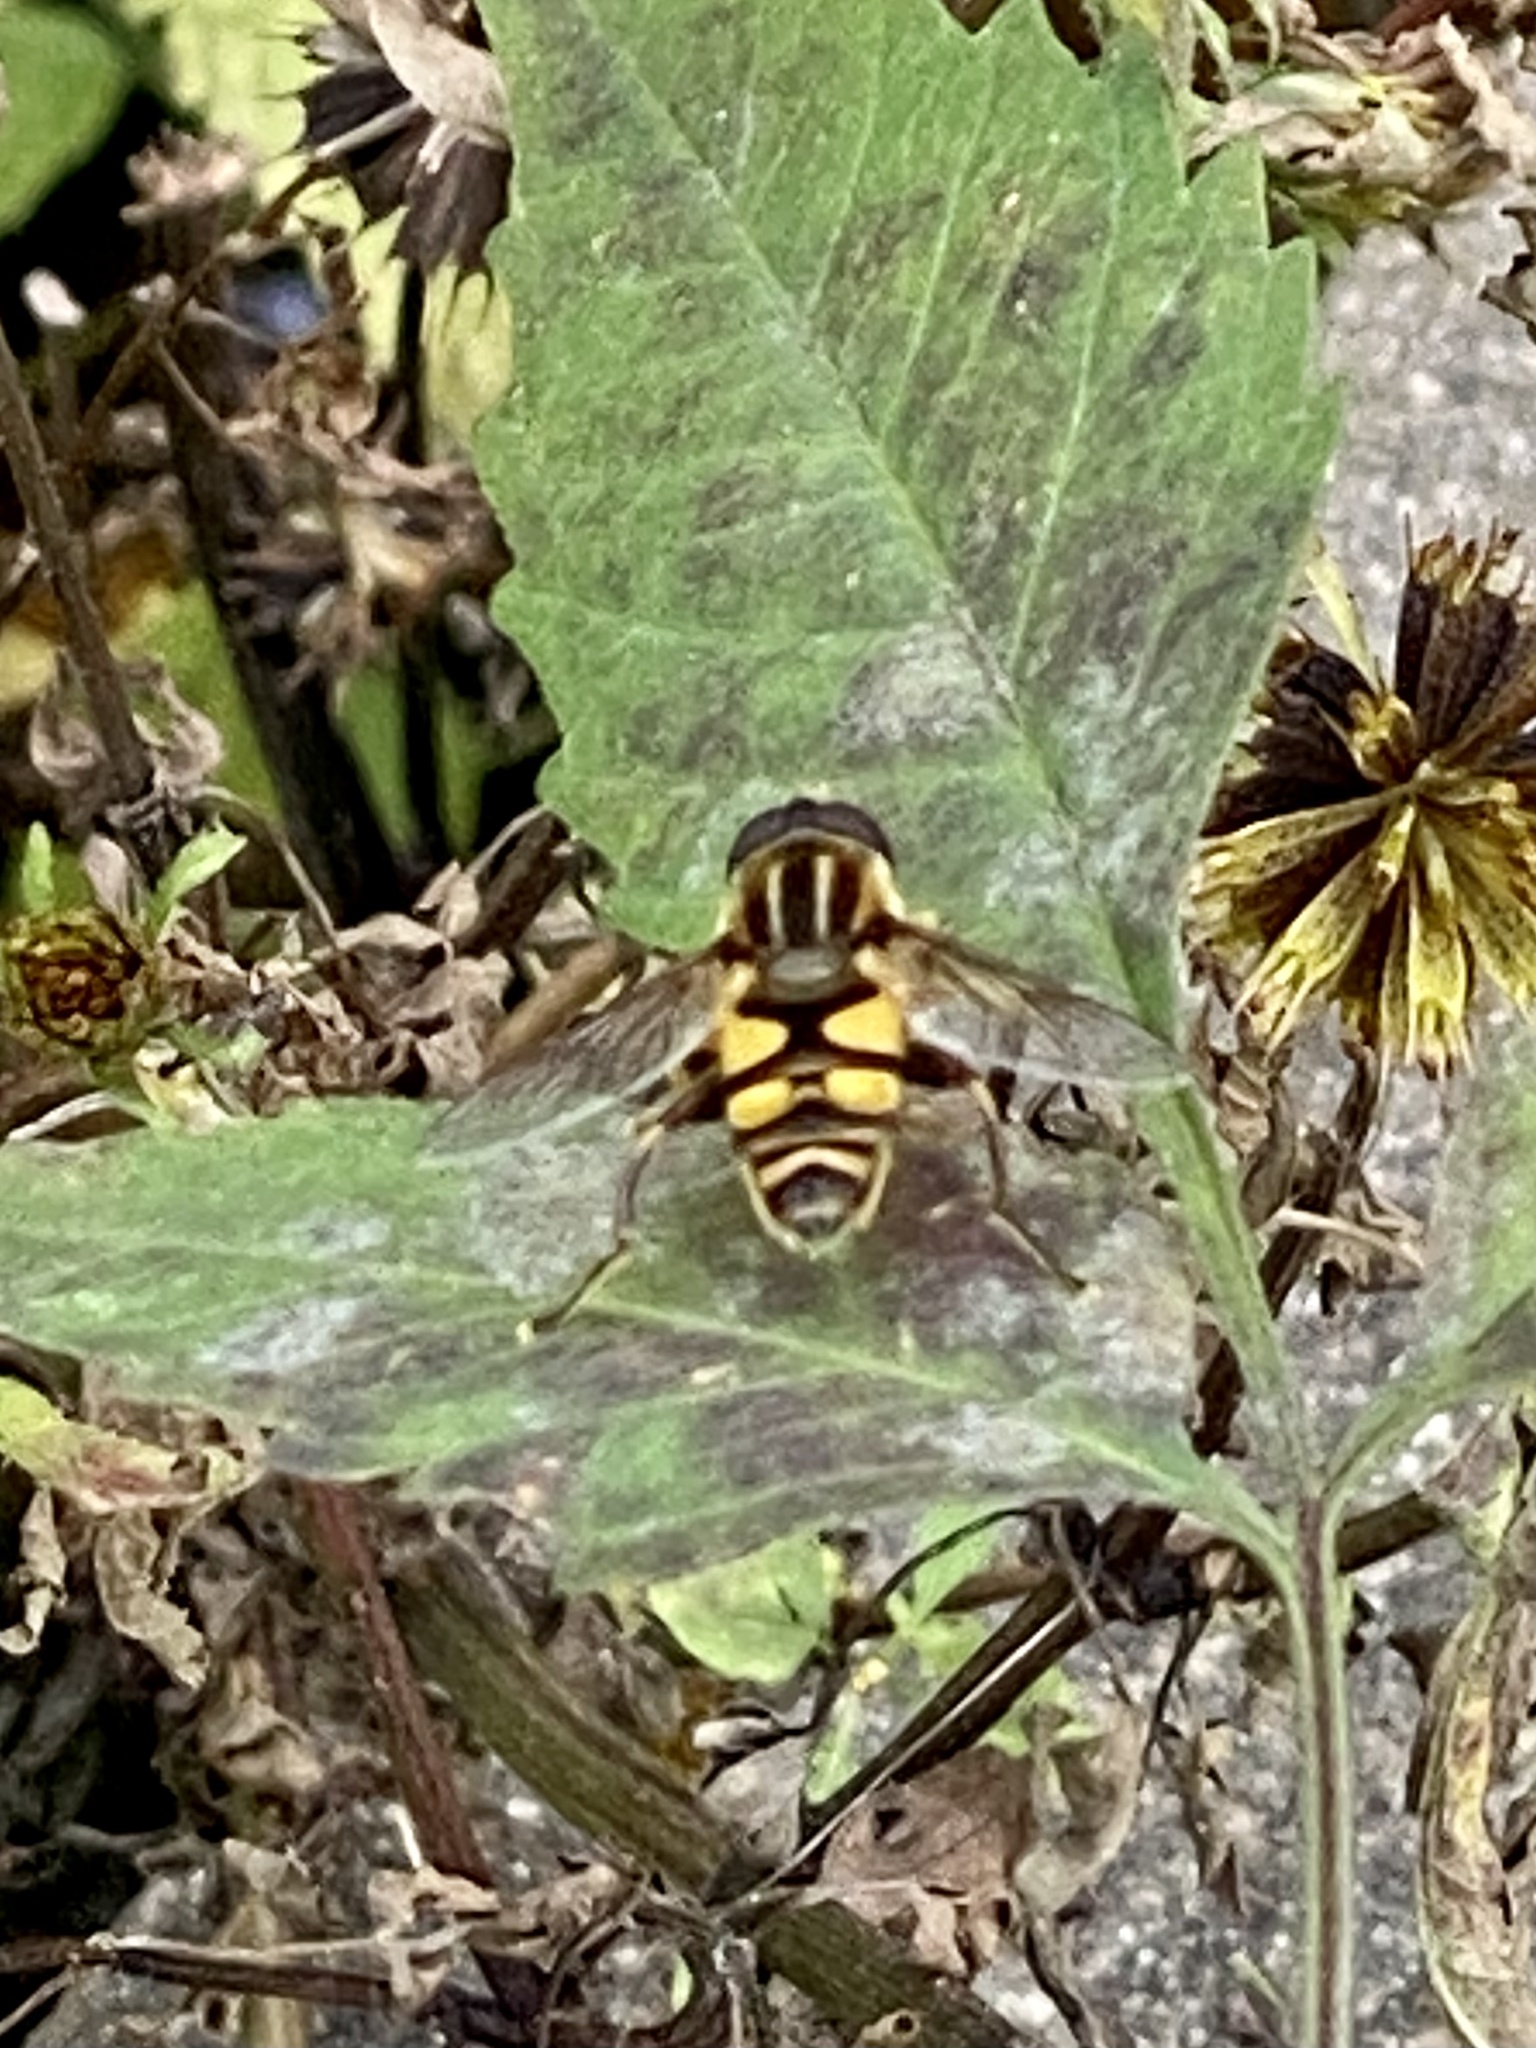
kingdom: Animalia
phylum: Arthropoda
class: Insecta
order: Diptera
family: Syrphidae
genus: Helophilus
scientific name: Helophilus fasciatus
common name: Narrow-headed marsh fly
